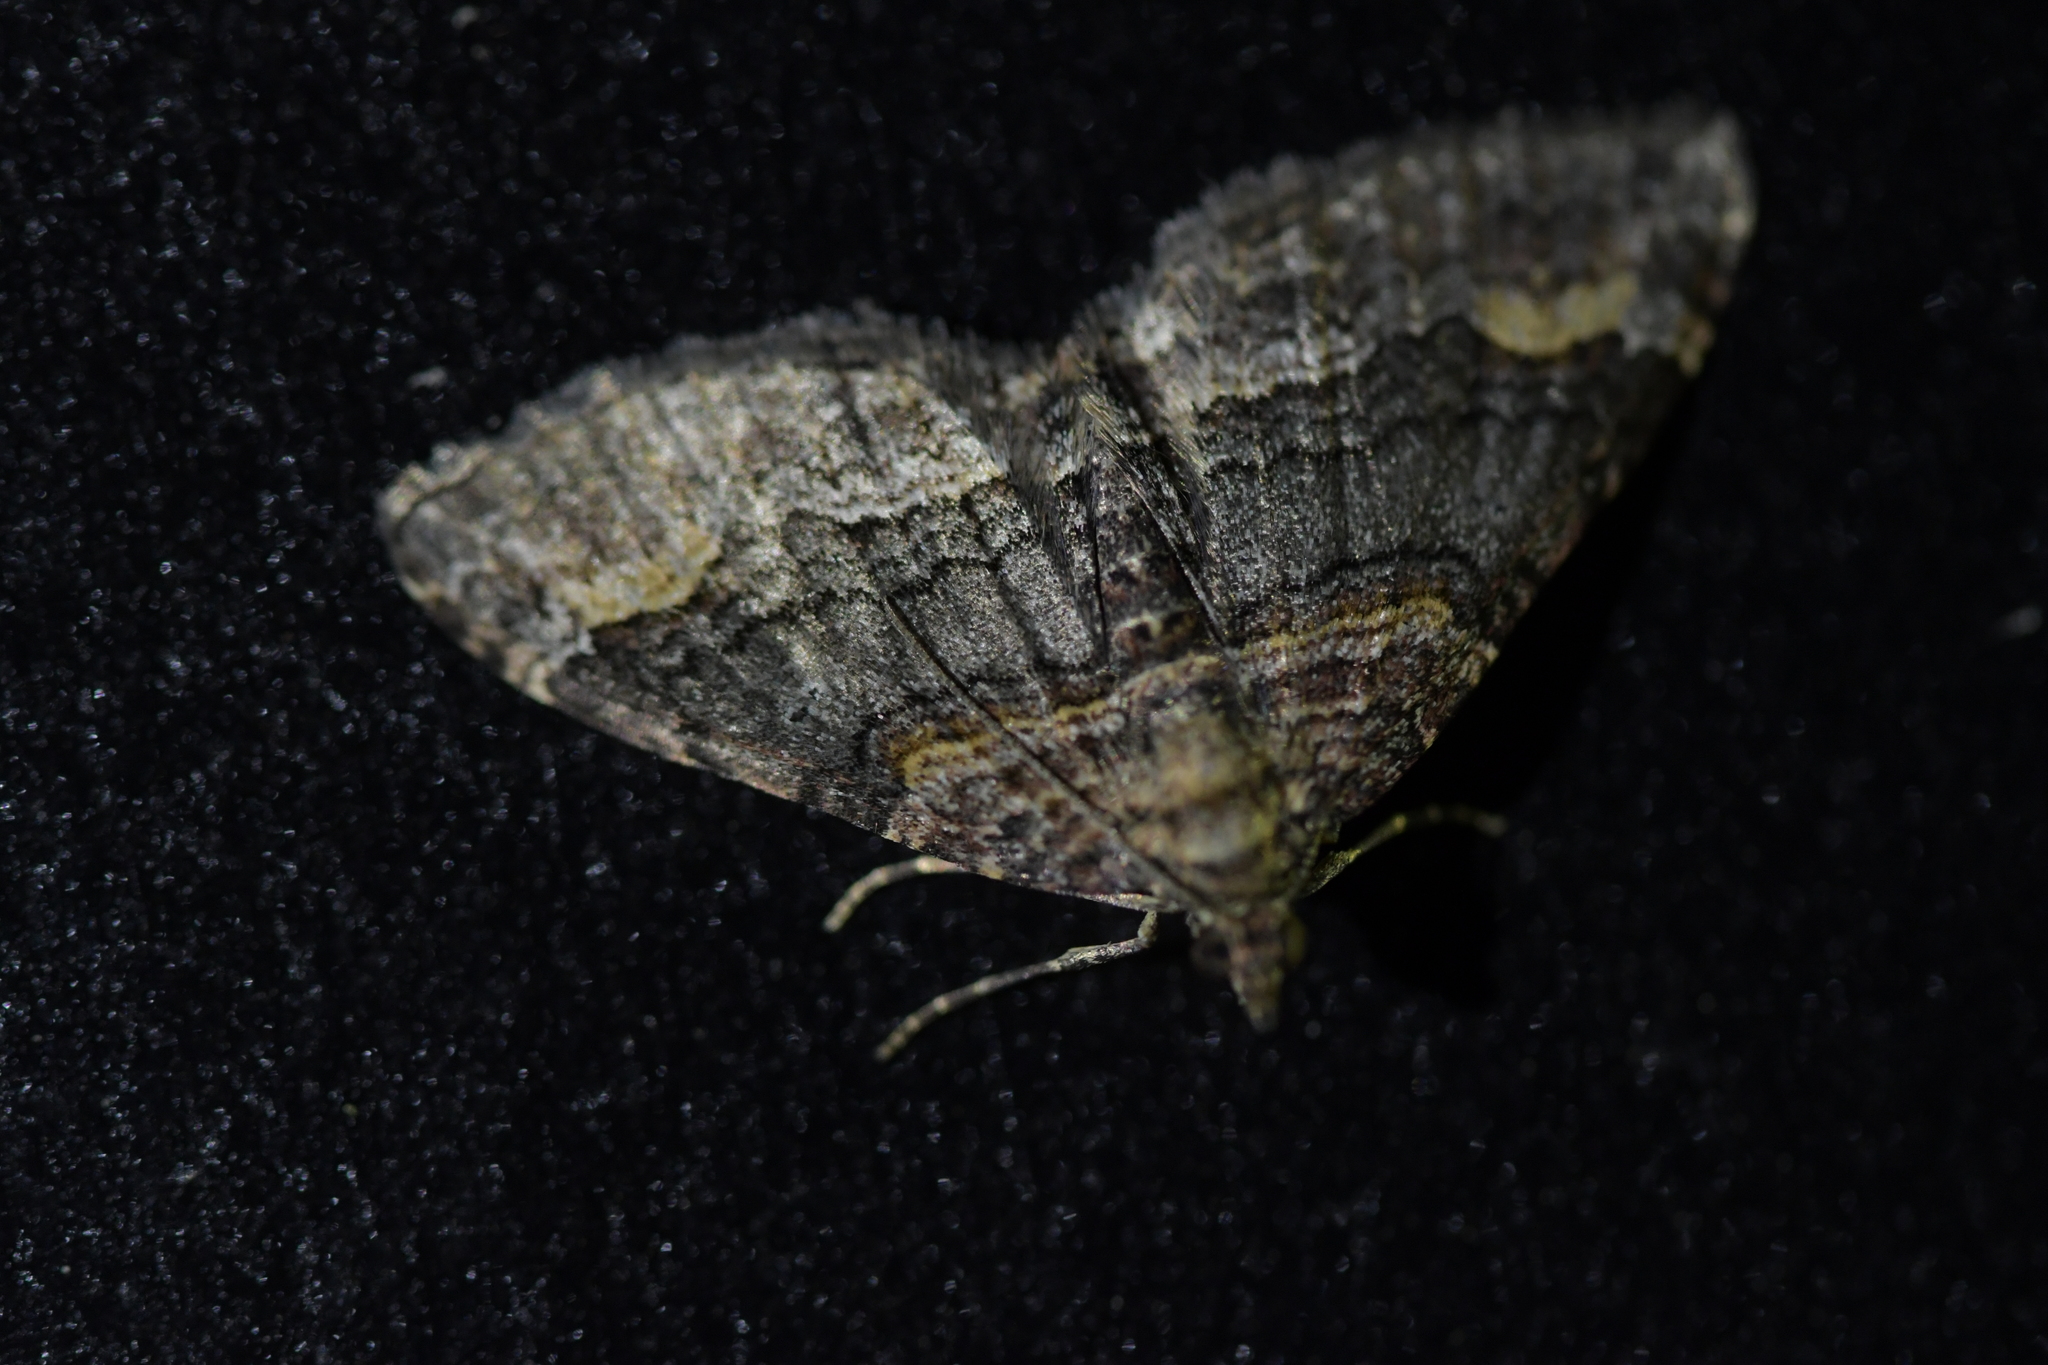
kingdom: Animalia
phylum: Arthropoda
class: Insecta
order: Lepidoptera
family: Geometridae
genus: Epyaxa
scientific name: Epyaxa lucidata
